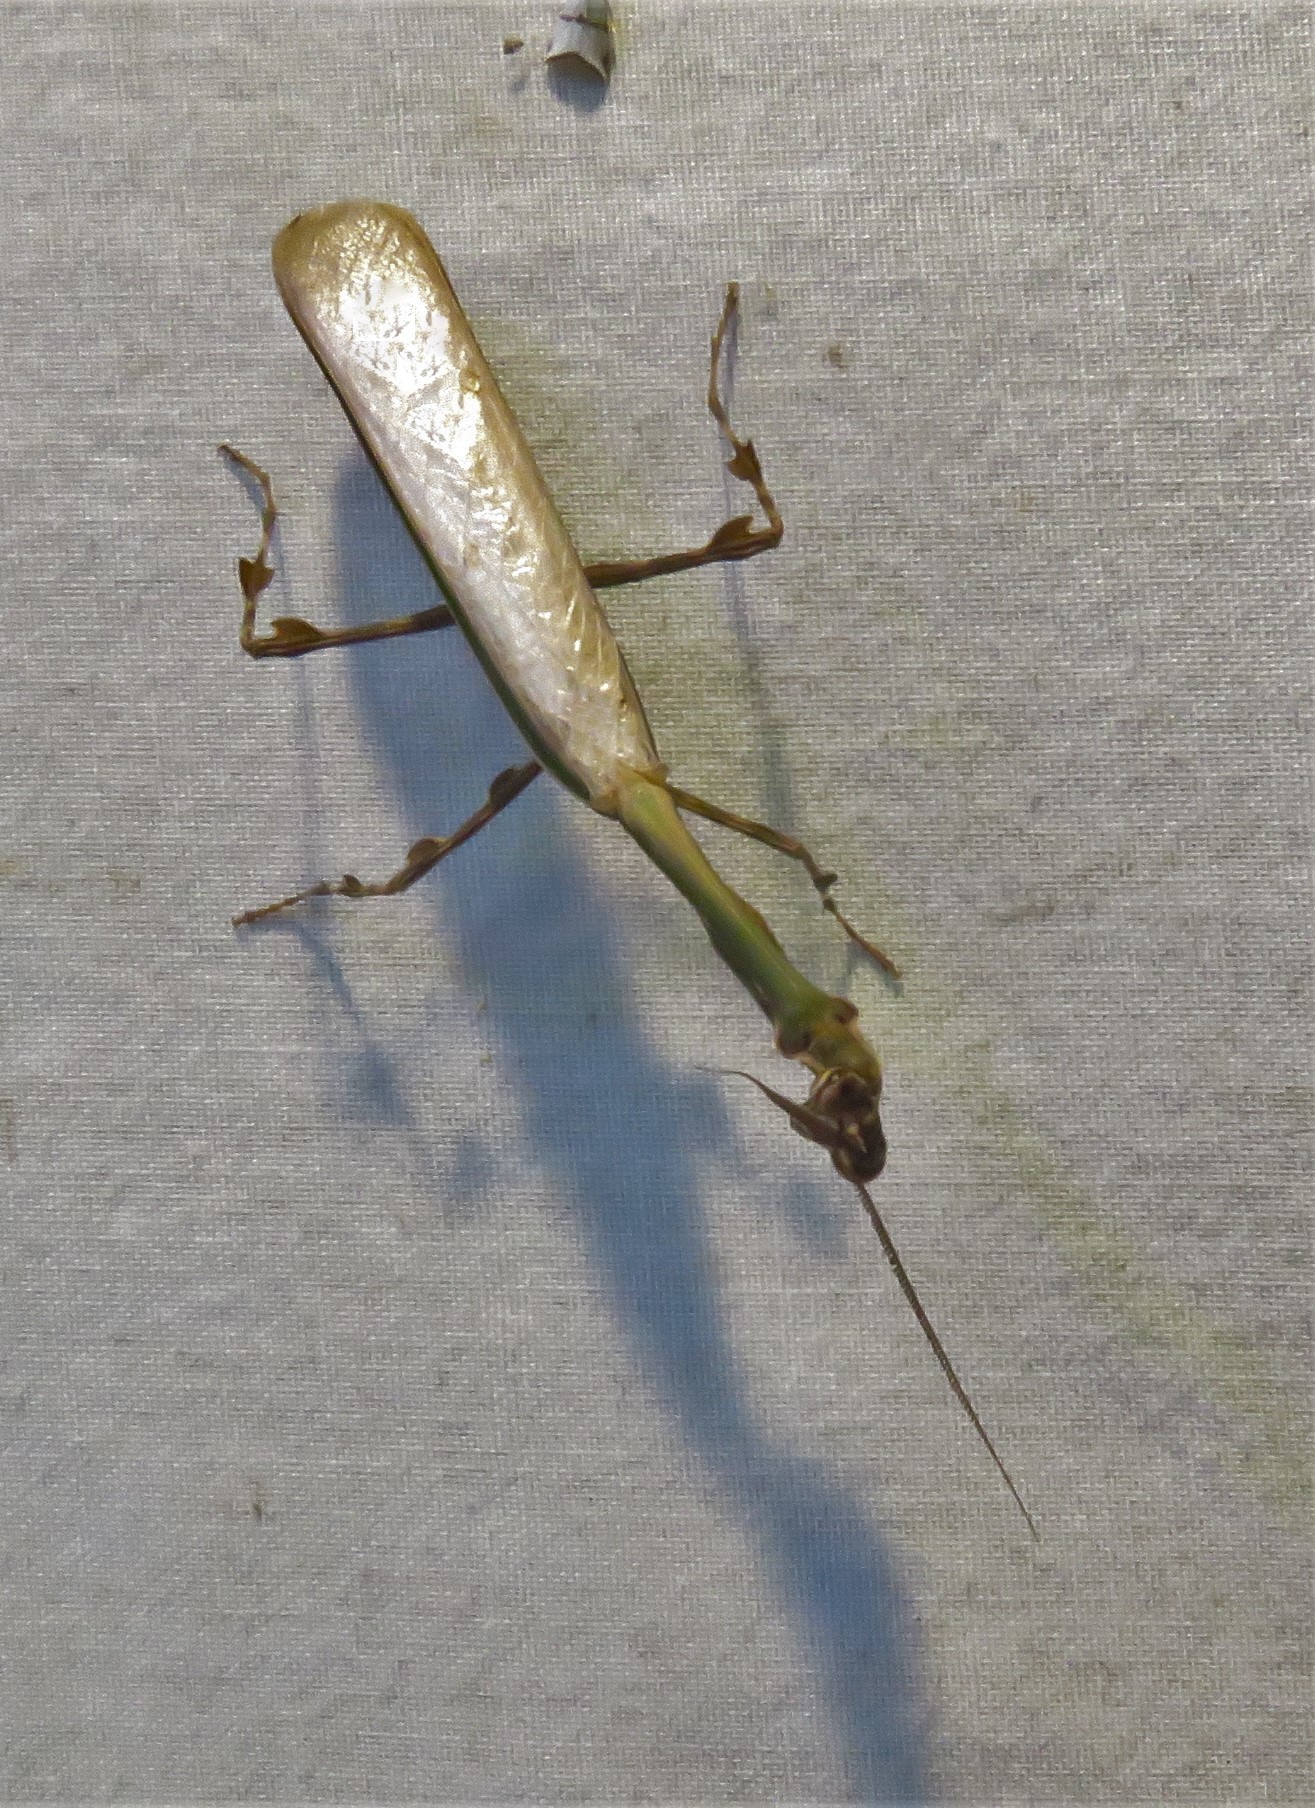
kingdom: Animalia
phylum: Arthropoda
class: Insecta
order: Mantodea
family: Mantidae
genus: Vates
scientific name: Vates pectinicornis
